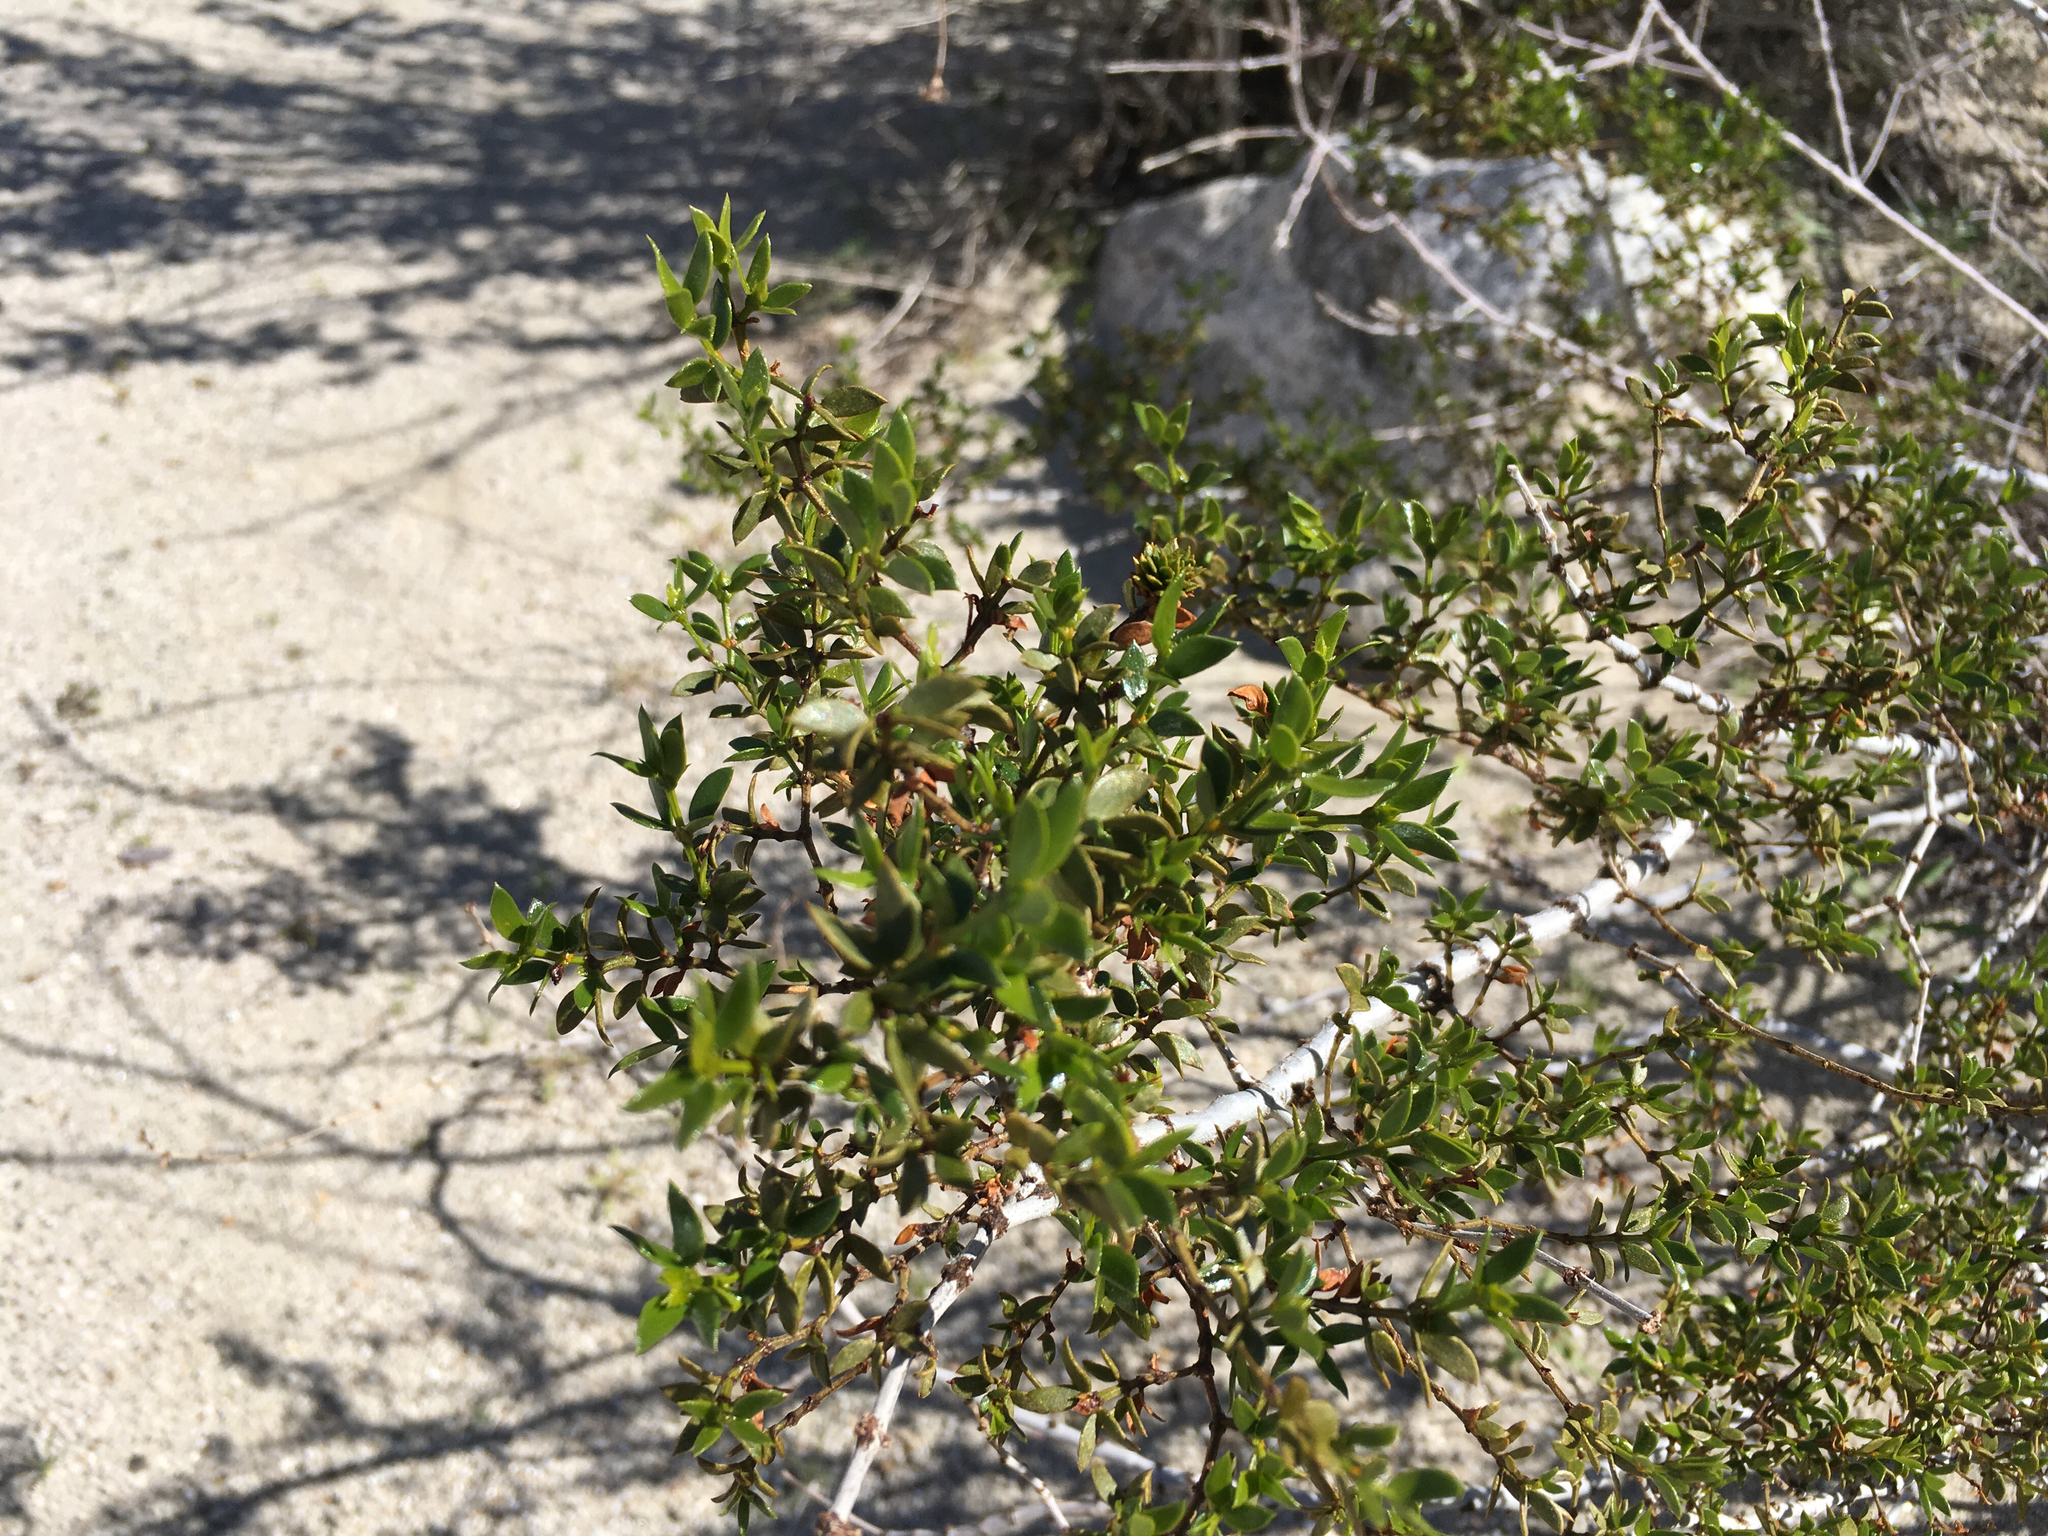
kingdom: Plantae
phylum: Tracheophyta
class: Magnoliopsida
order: Zygophyllales
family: Zygophyllaceae
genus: Larrea
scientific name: Larrea tridentata
